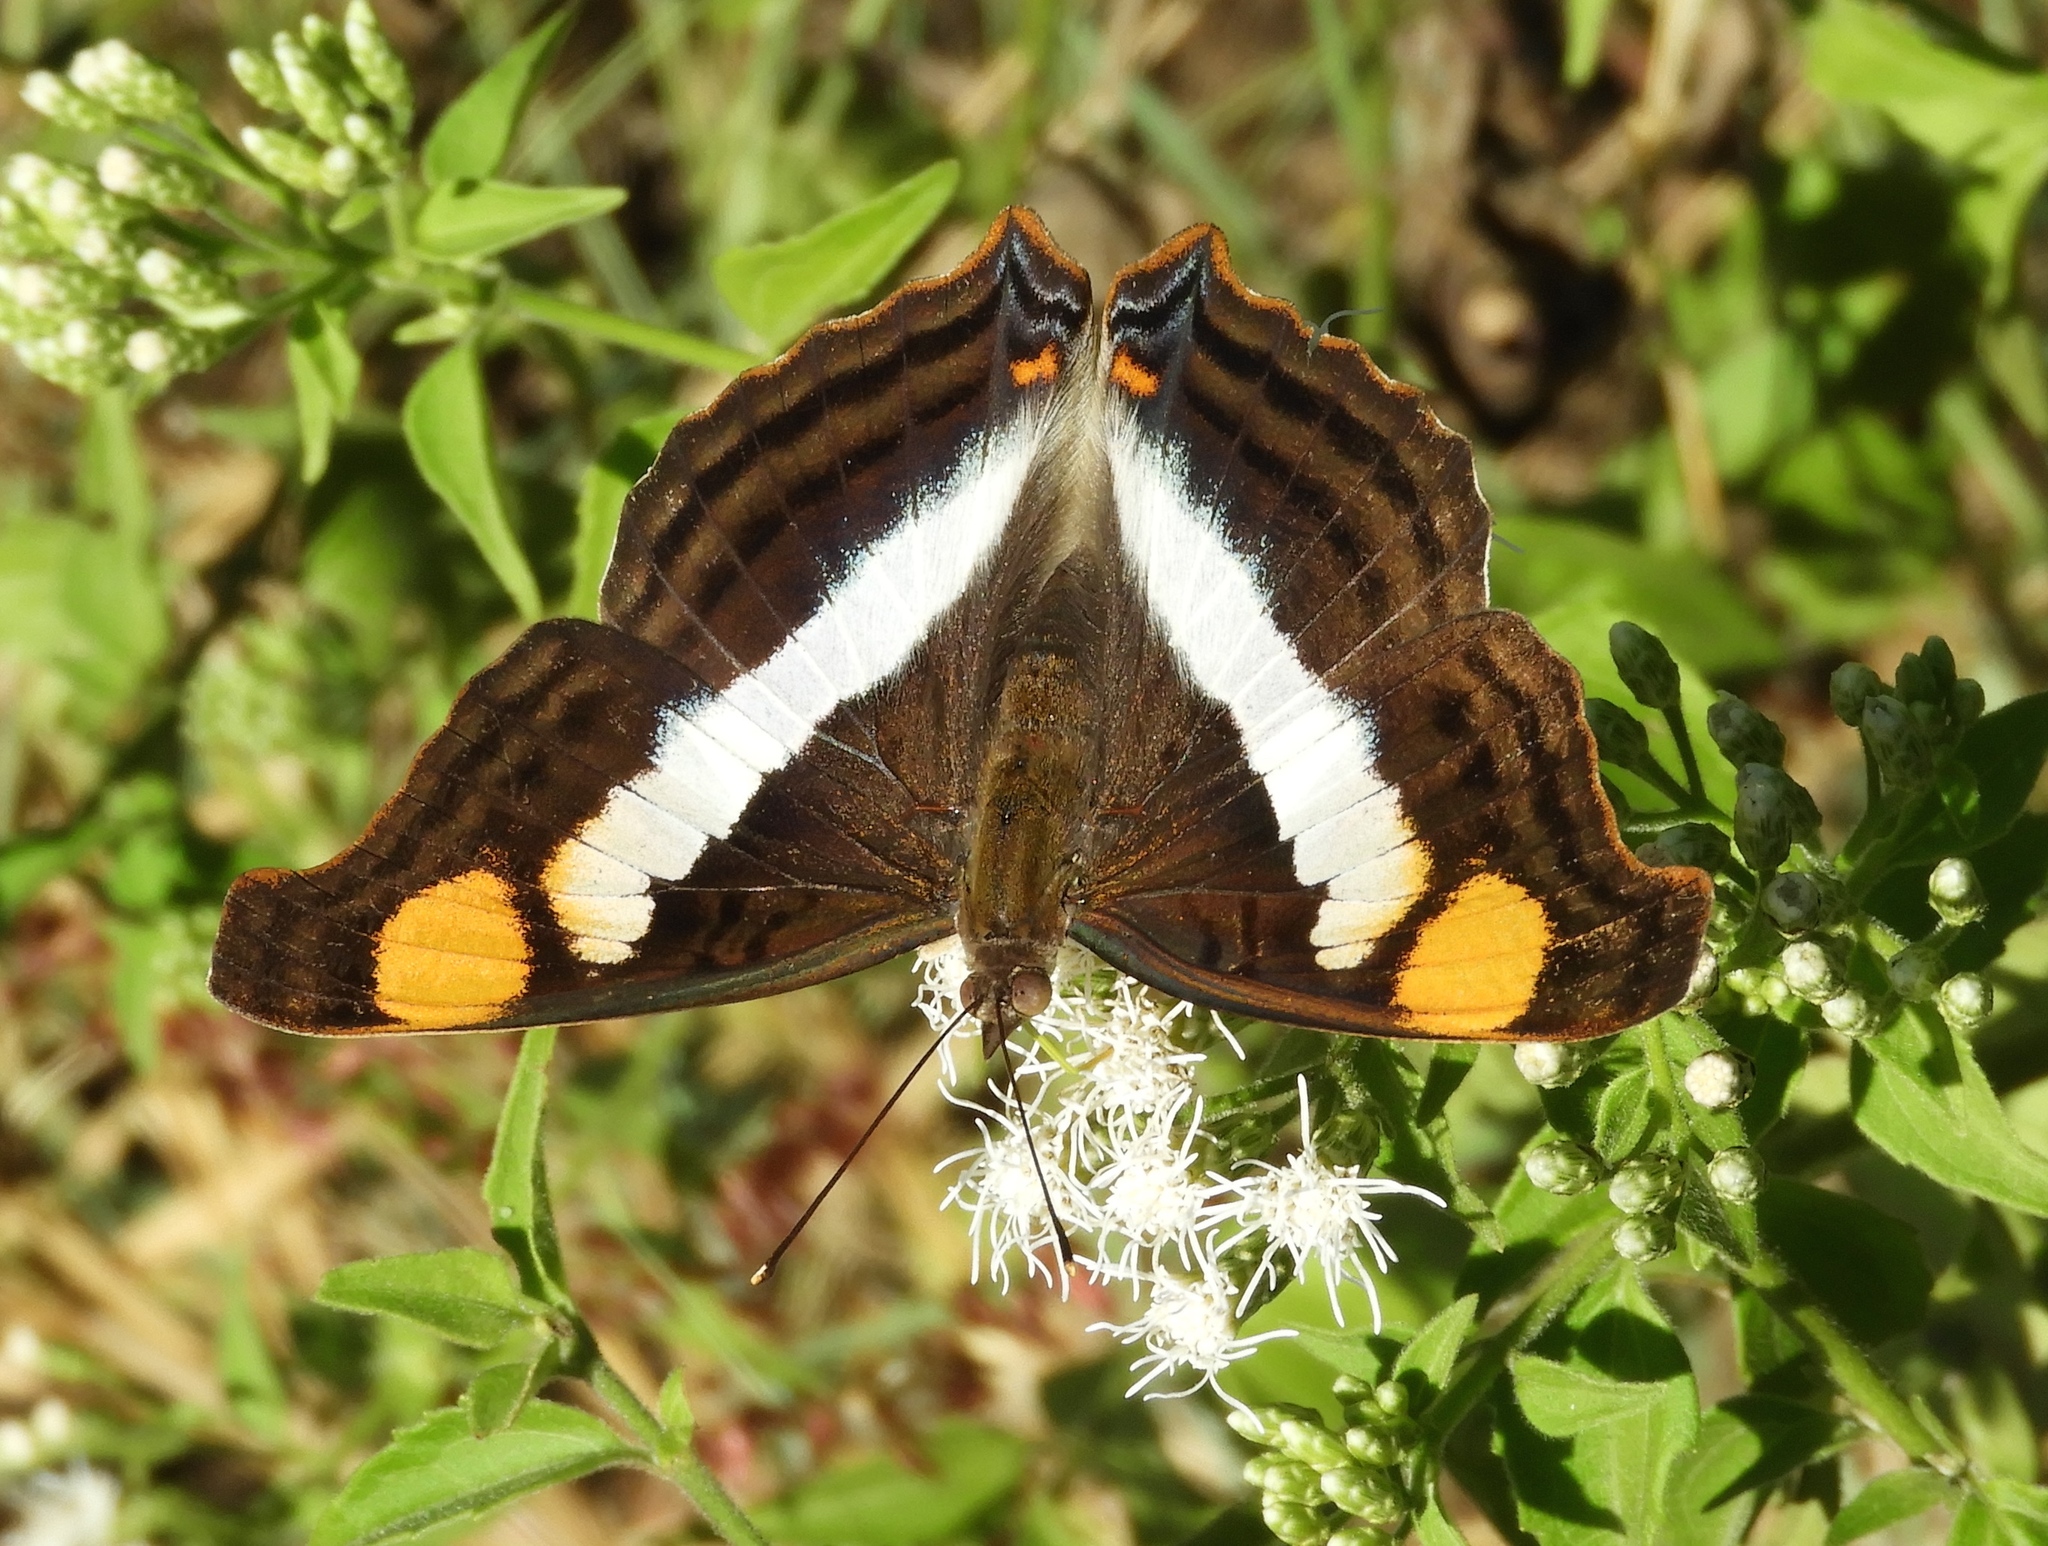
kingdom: Animalia
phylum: Arthropoda
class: Insecta
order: Lepidoptera
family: Nymphalidae
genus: Doxocopa
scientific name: Doxocopa laure
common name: Silver emperor
